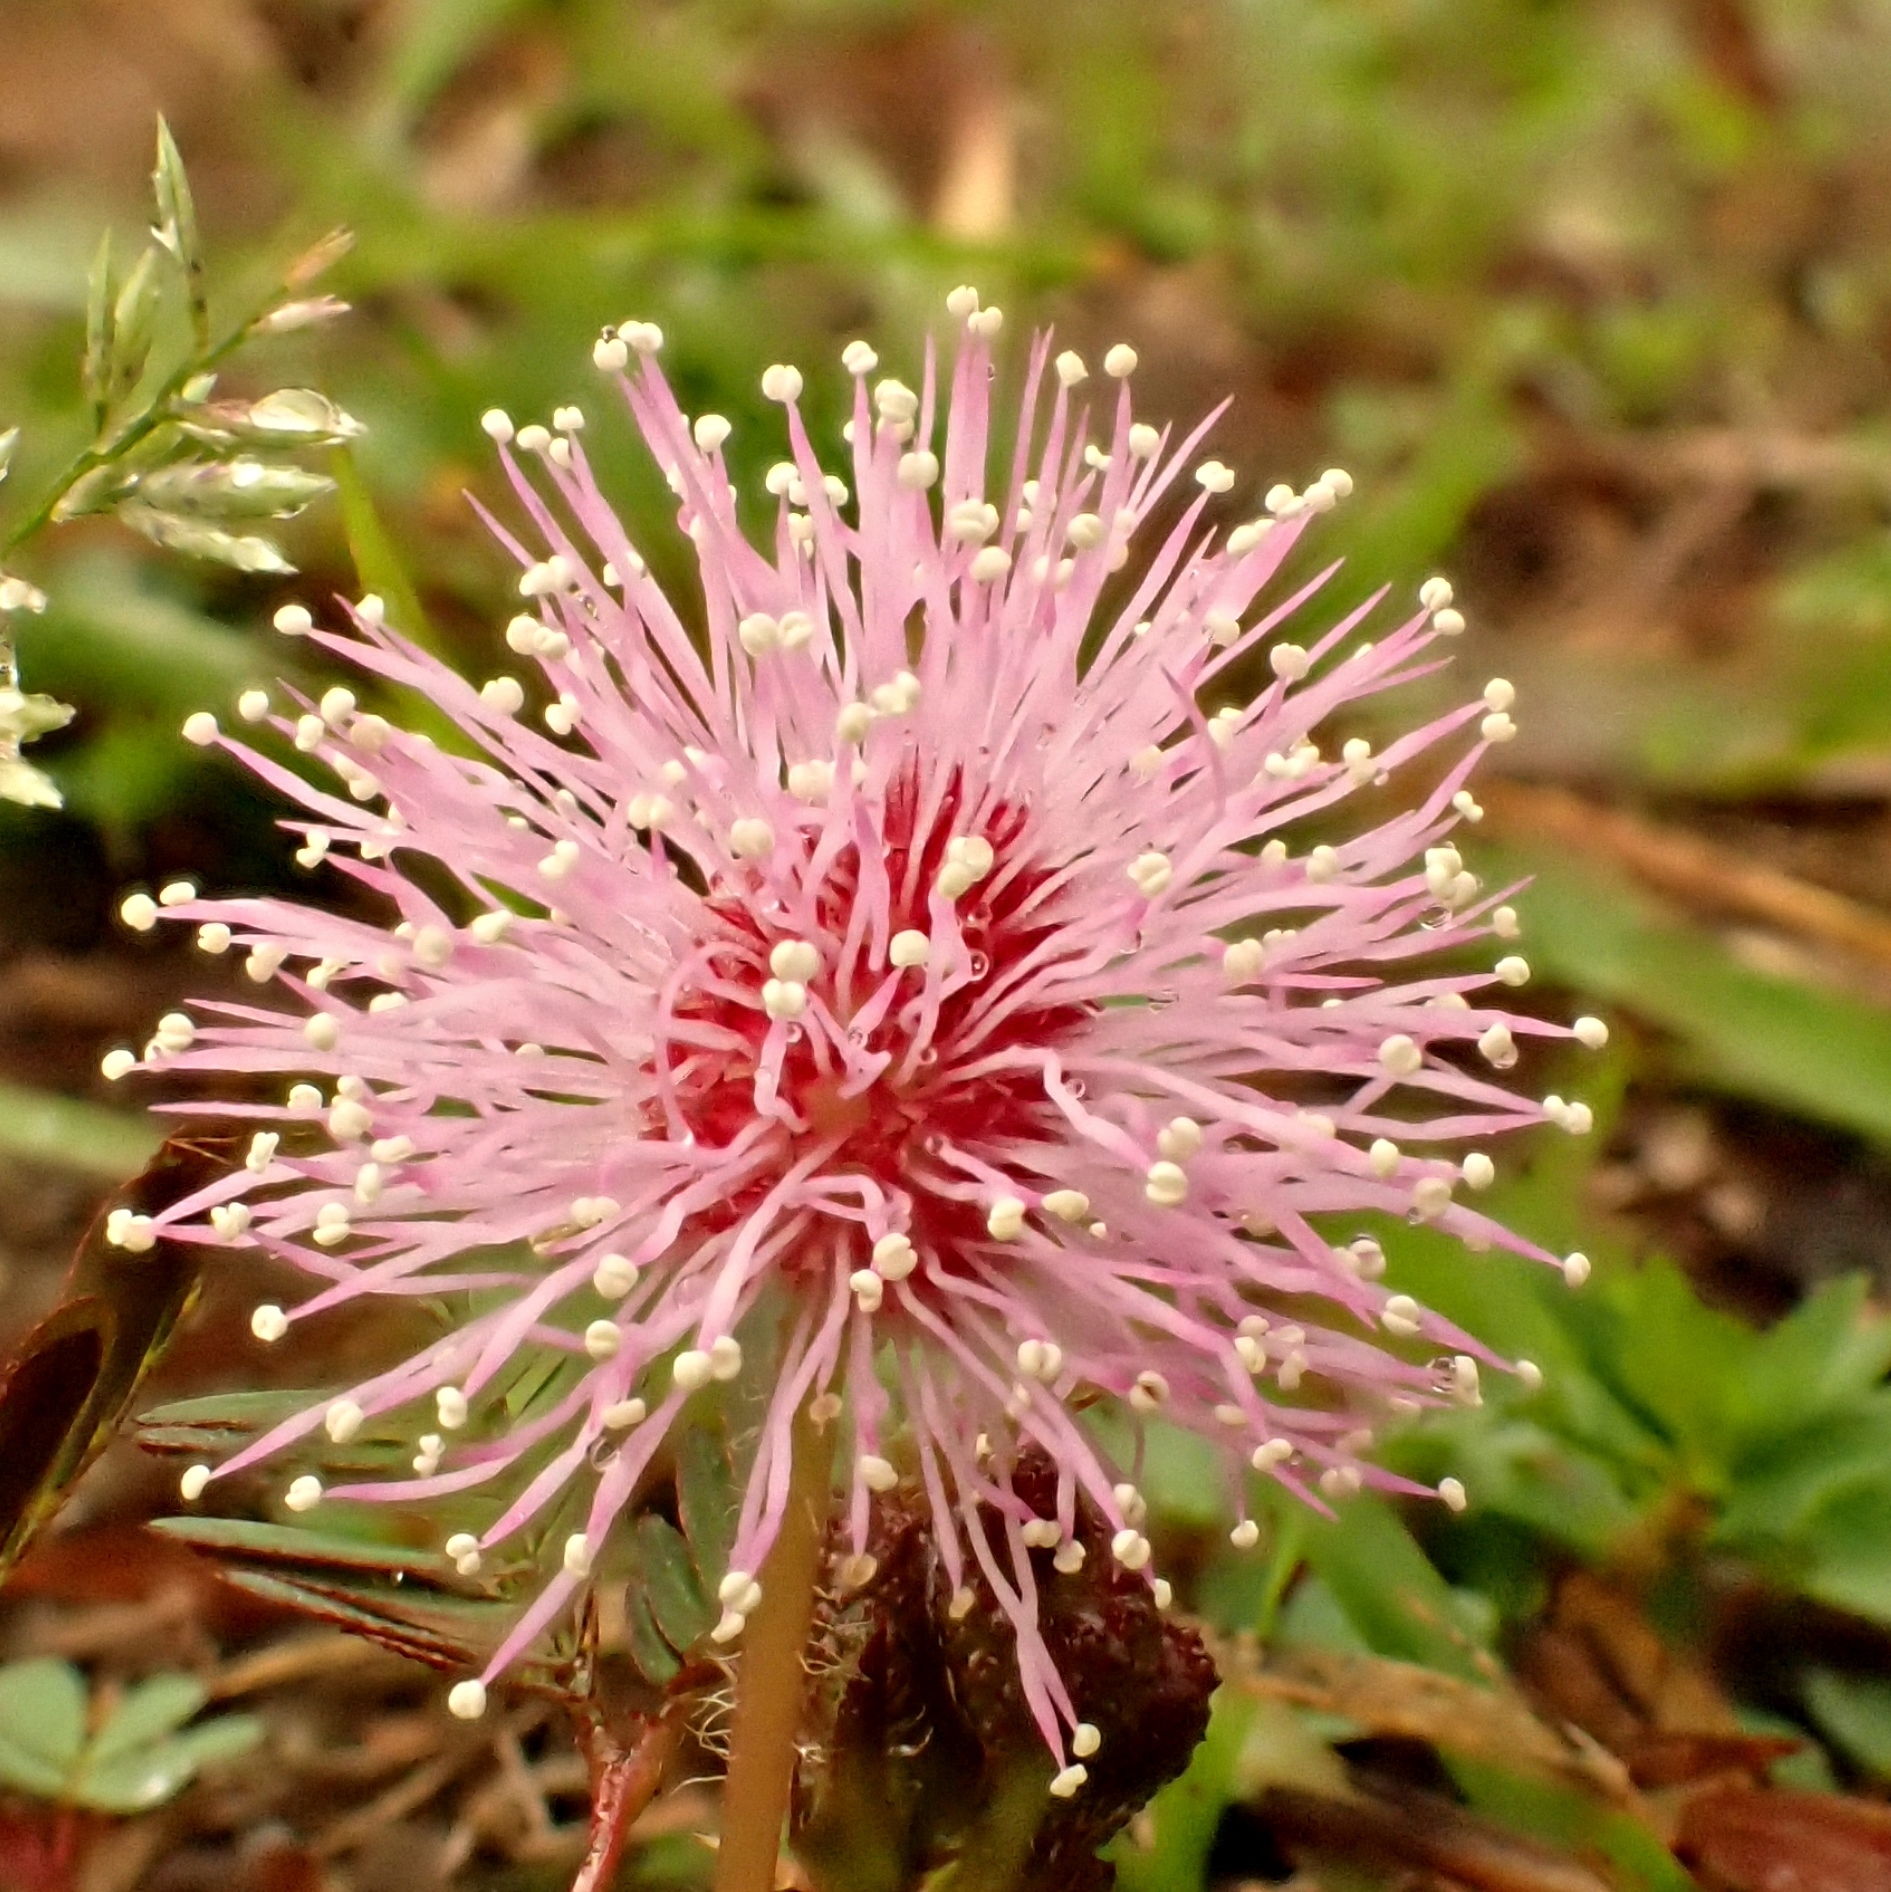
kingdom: Plantae
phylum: Tracheophyta
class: Magnoliopsida
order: Fabales
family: Fabaceae
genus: Mimosa
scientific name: Mimosa pudica
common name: Sensitive plant
